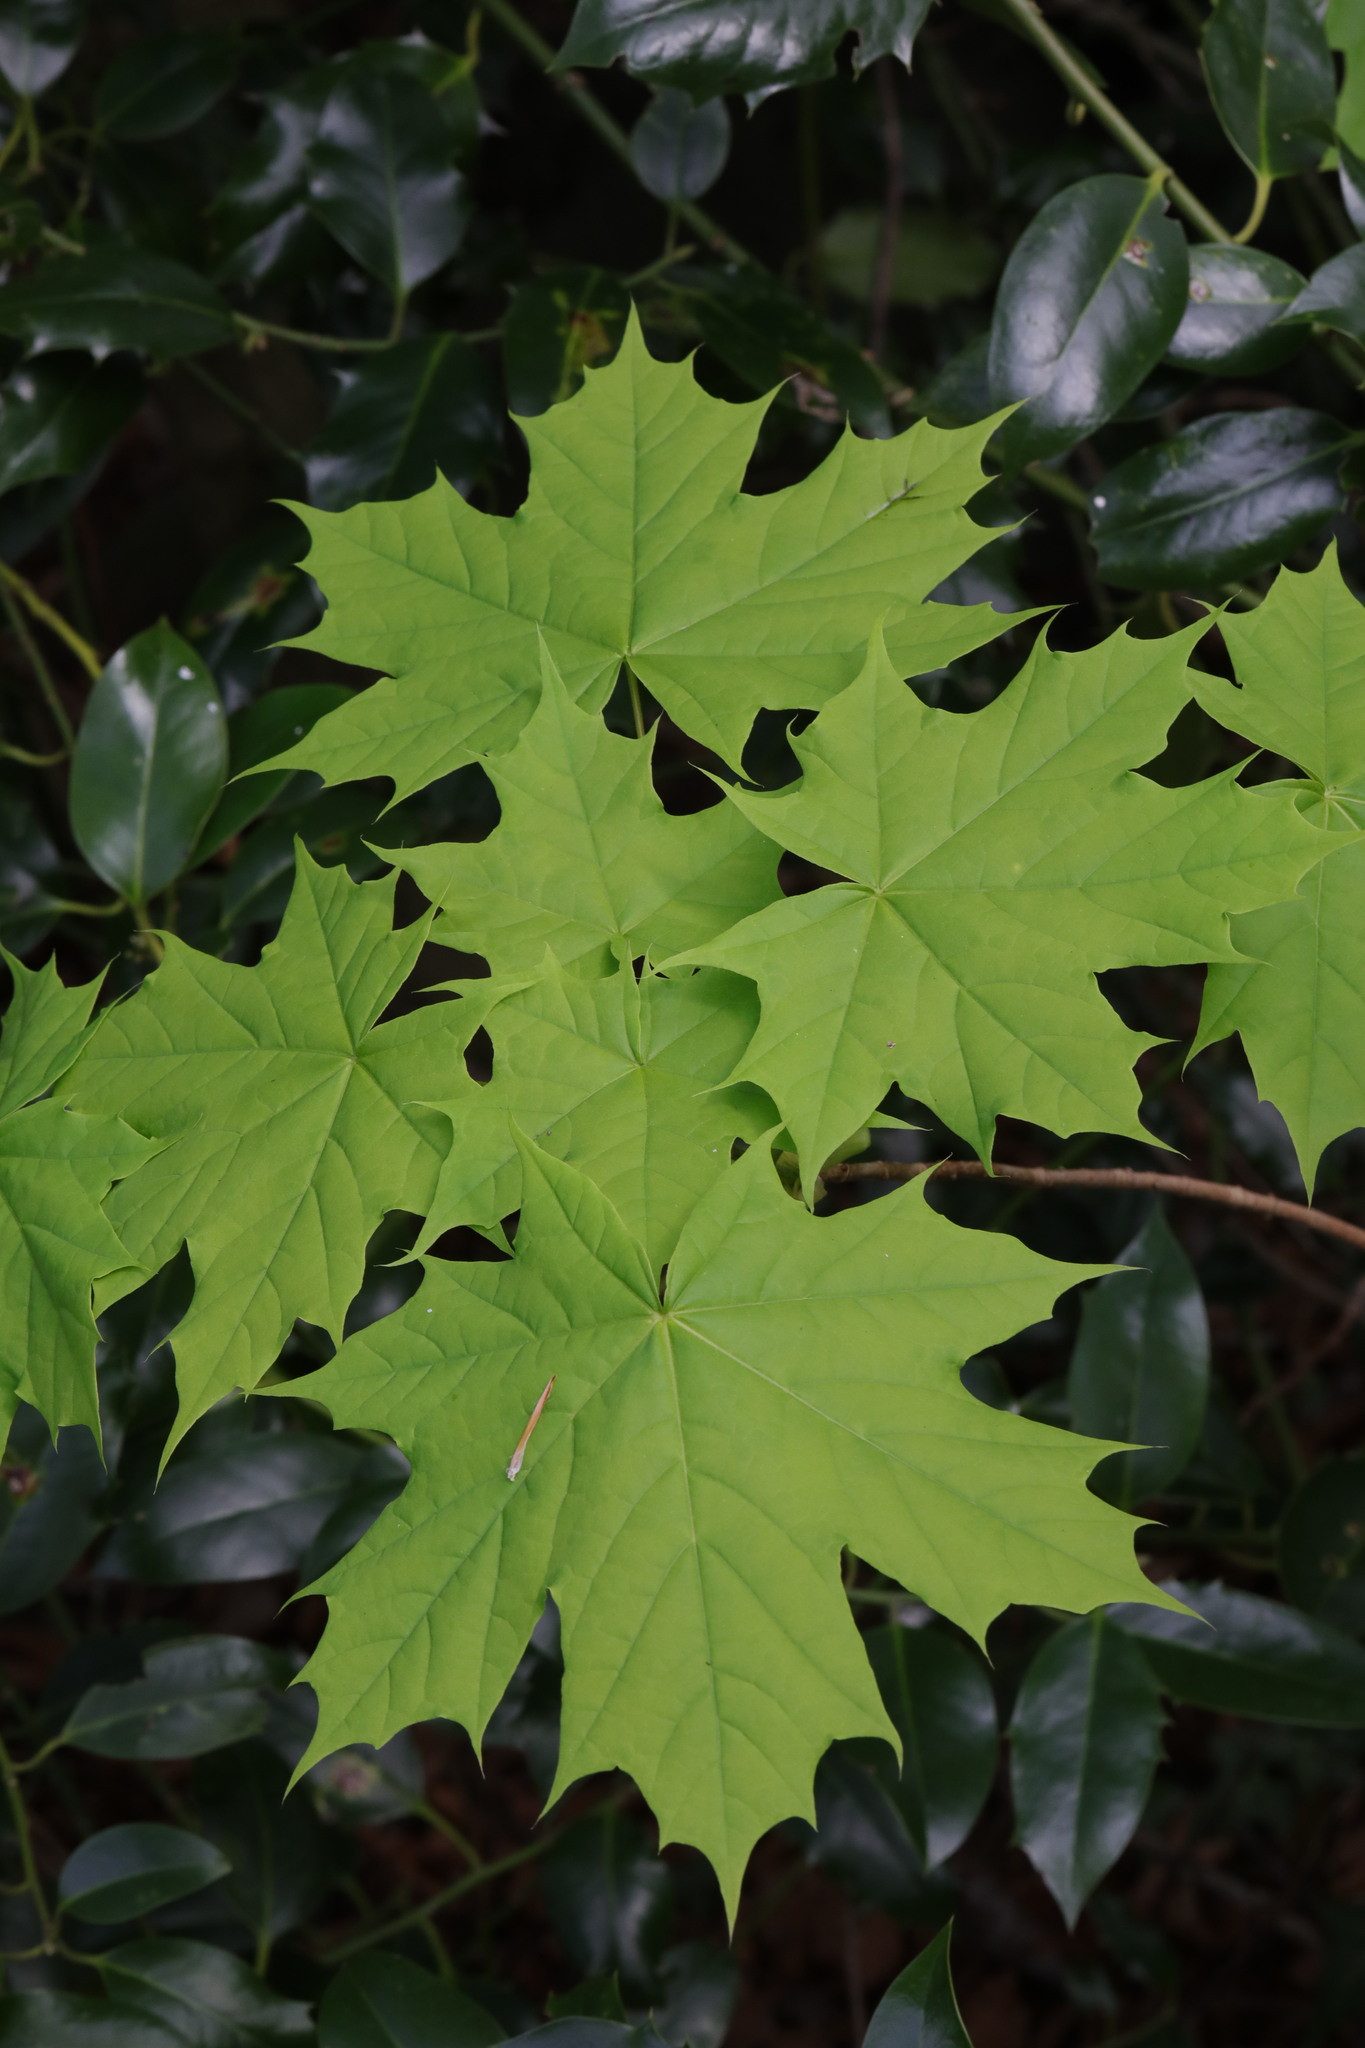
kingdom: Plantae
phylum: Tracheophyta
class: Magnoliopsida
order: Sapindales
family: Sapindaceae
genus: Acer
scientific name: Acer platanoides
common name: Norway maple
